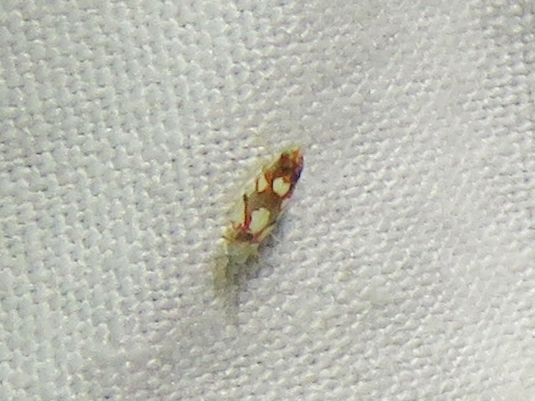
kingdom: Animalia
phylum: Arthropoda
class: Insecta
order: Hemiptera
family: Cicadellidae
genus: Erythroneura
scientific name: Erythroneura elegans
